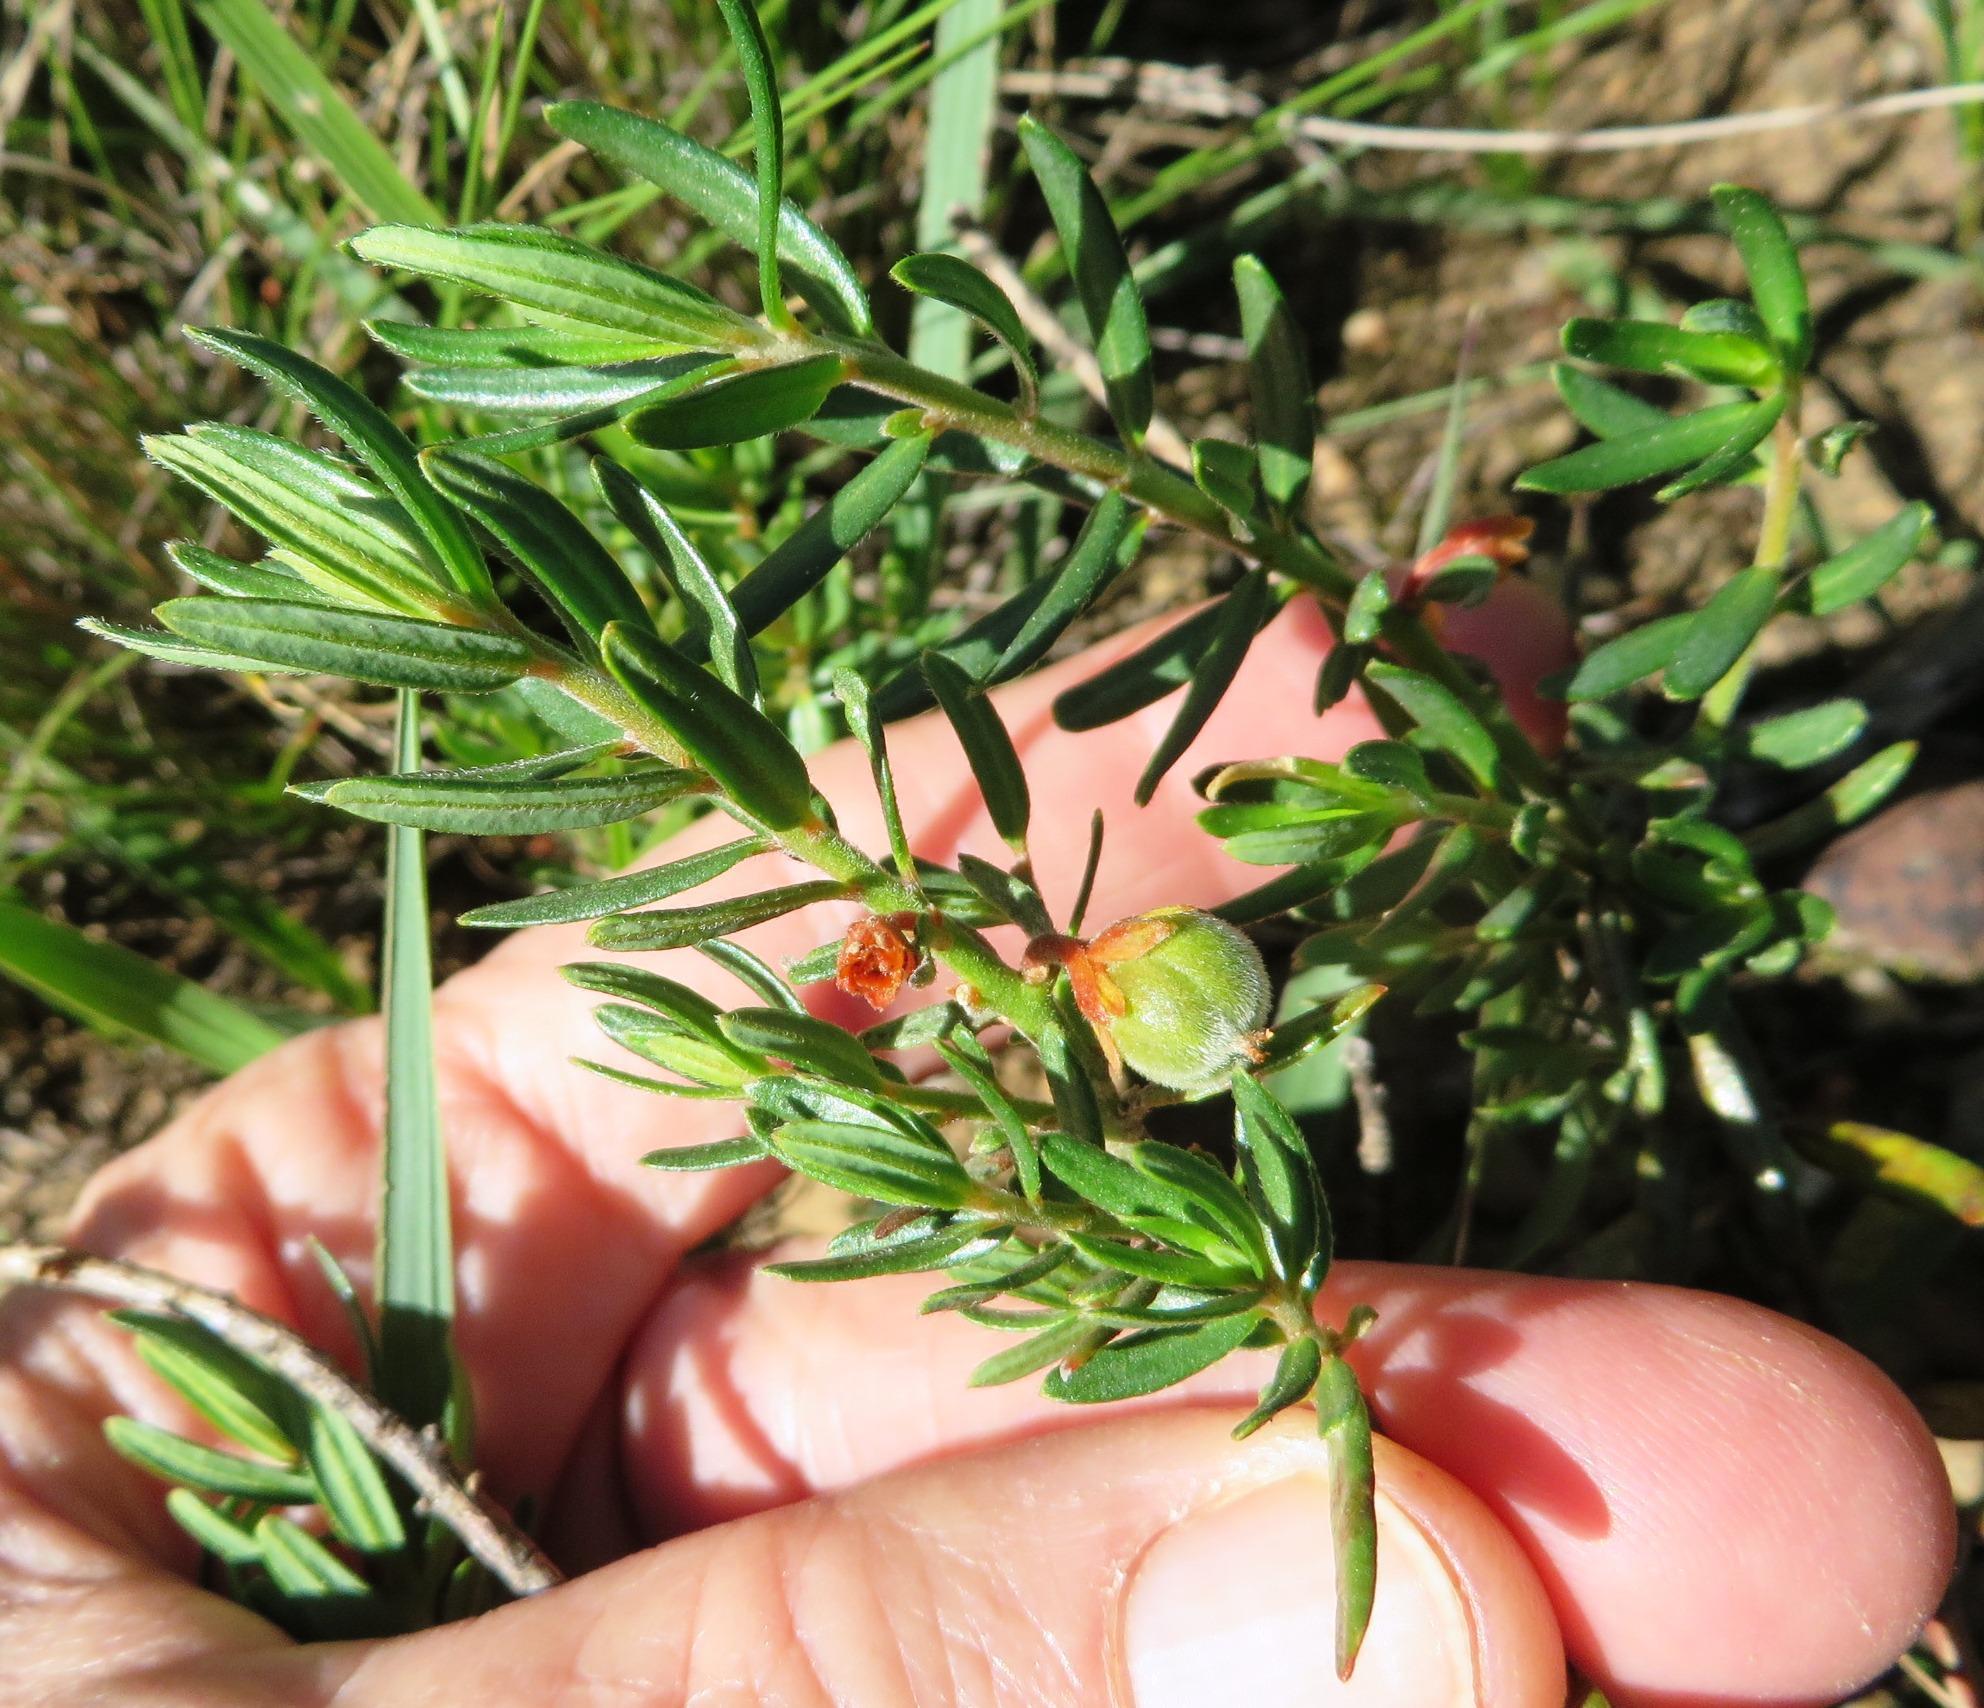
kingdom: Plantae
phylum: Tracheophyta
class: Magnoliopsida
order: Malpighiales
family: Peraceae
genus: Clutia
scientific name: Clutia pubescens
